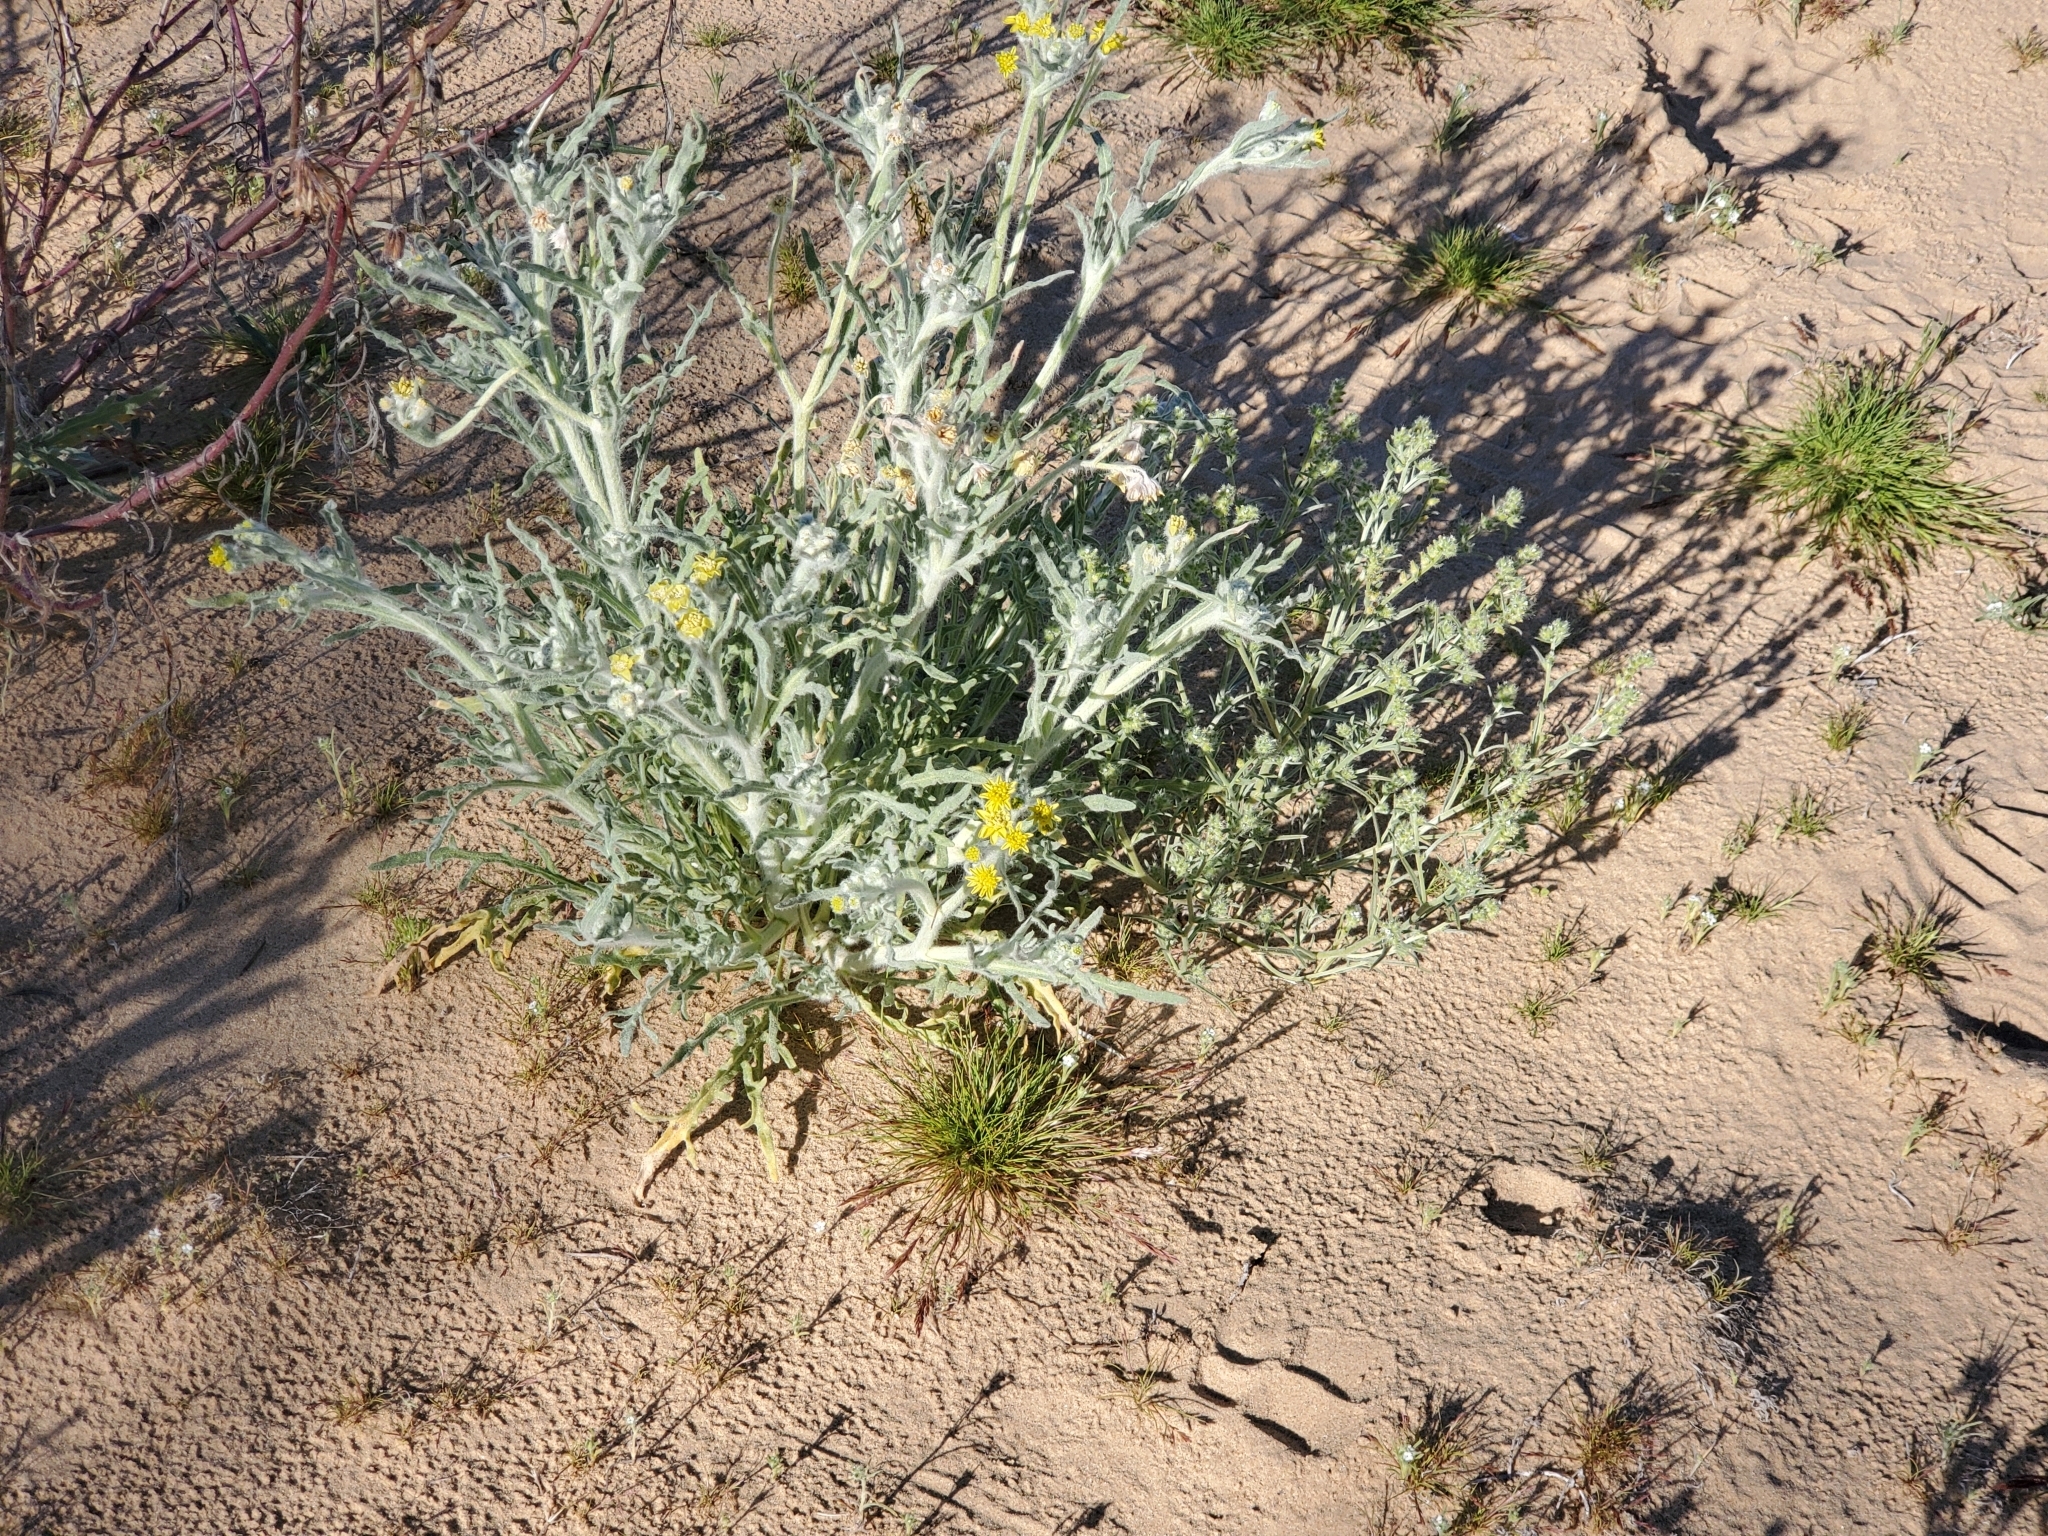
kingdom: Plantae
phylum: Tracheophyta
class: Magnoliopsida
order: Asterales
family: Asteraceae
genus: Baileya
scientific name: Baileya pauciradiata
